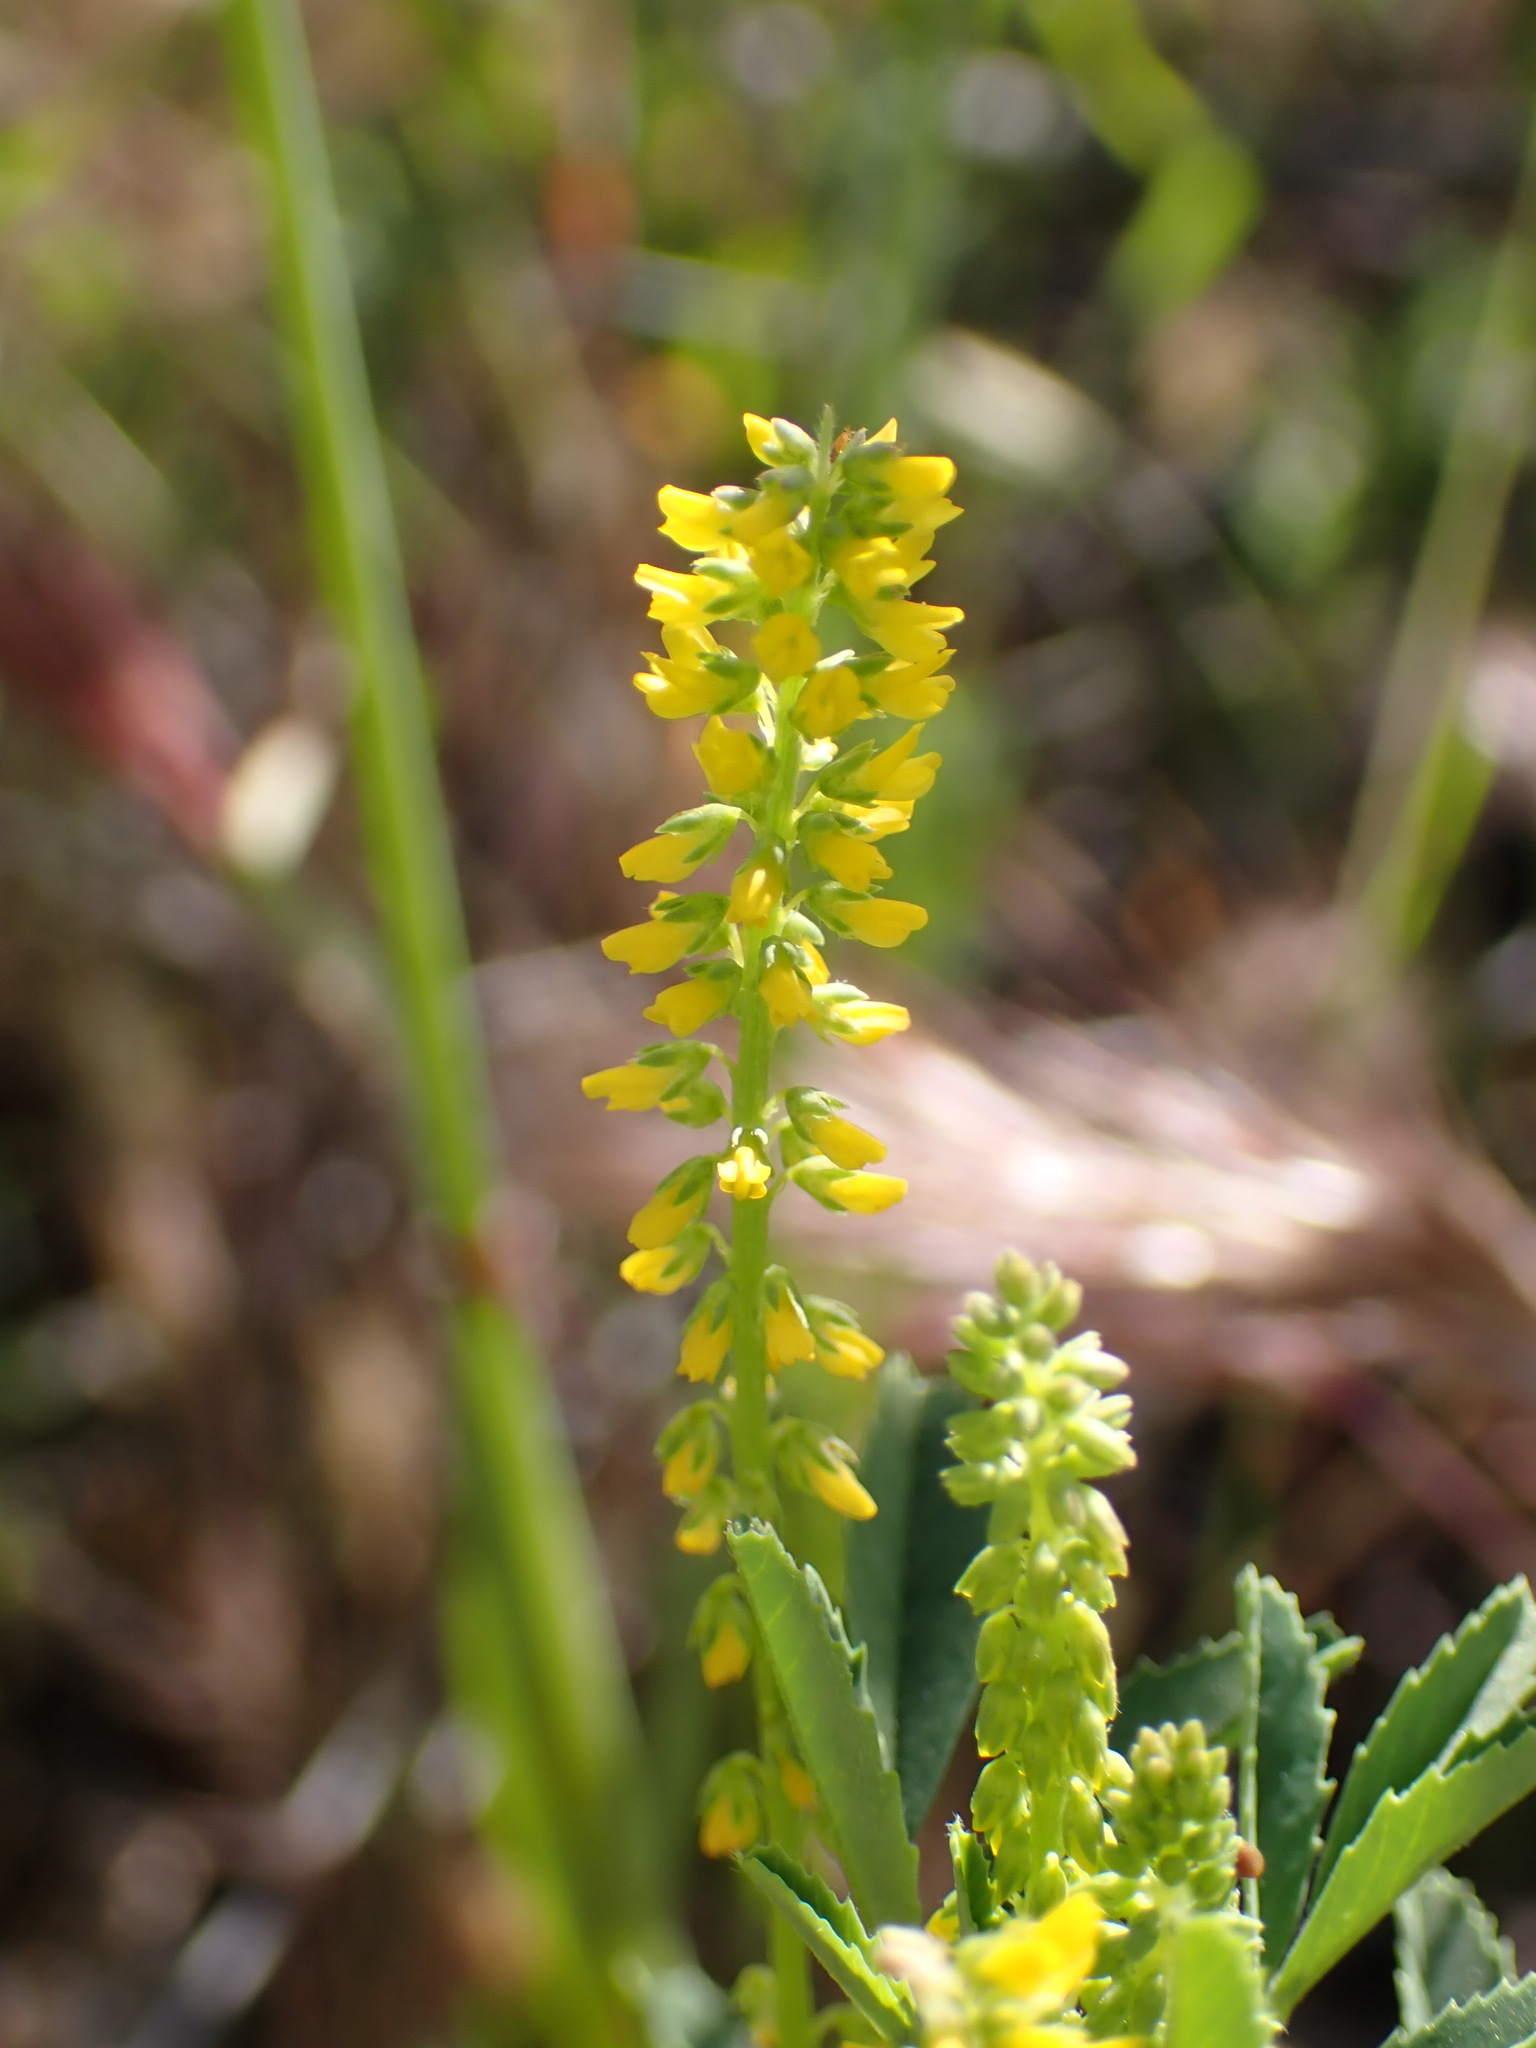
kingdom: Plantae
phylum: Tracheophyta
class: Magnoliopsida
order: Fabales
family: Fabaceae
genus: Melilotus
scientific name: Melilotus indicus
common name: Small melilot
